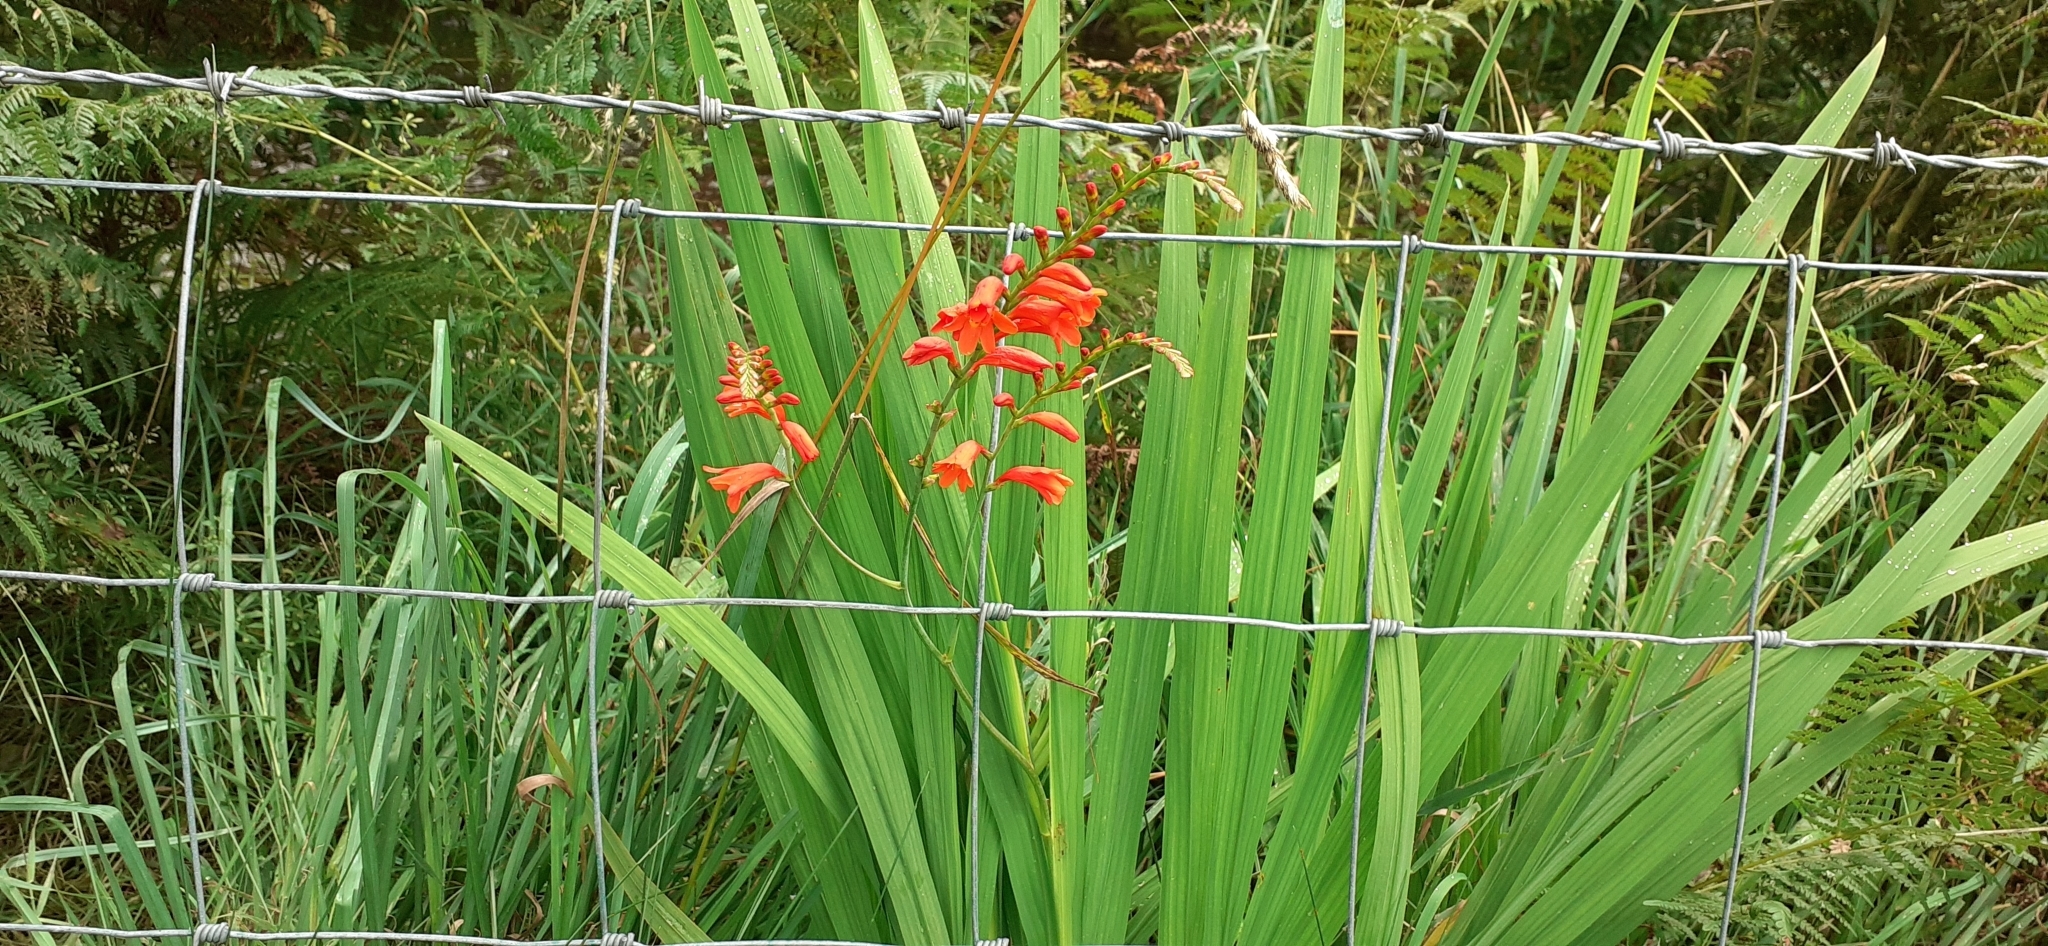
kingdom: Plantae
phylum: Tracheophyta
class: Liliopsida
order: Asparagales
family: Iridaceae
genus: Crocosmia
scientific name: Crocosmia crocosmiiflora
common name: Montbretia
